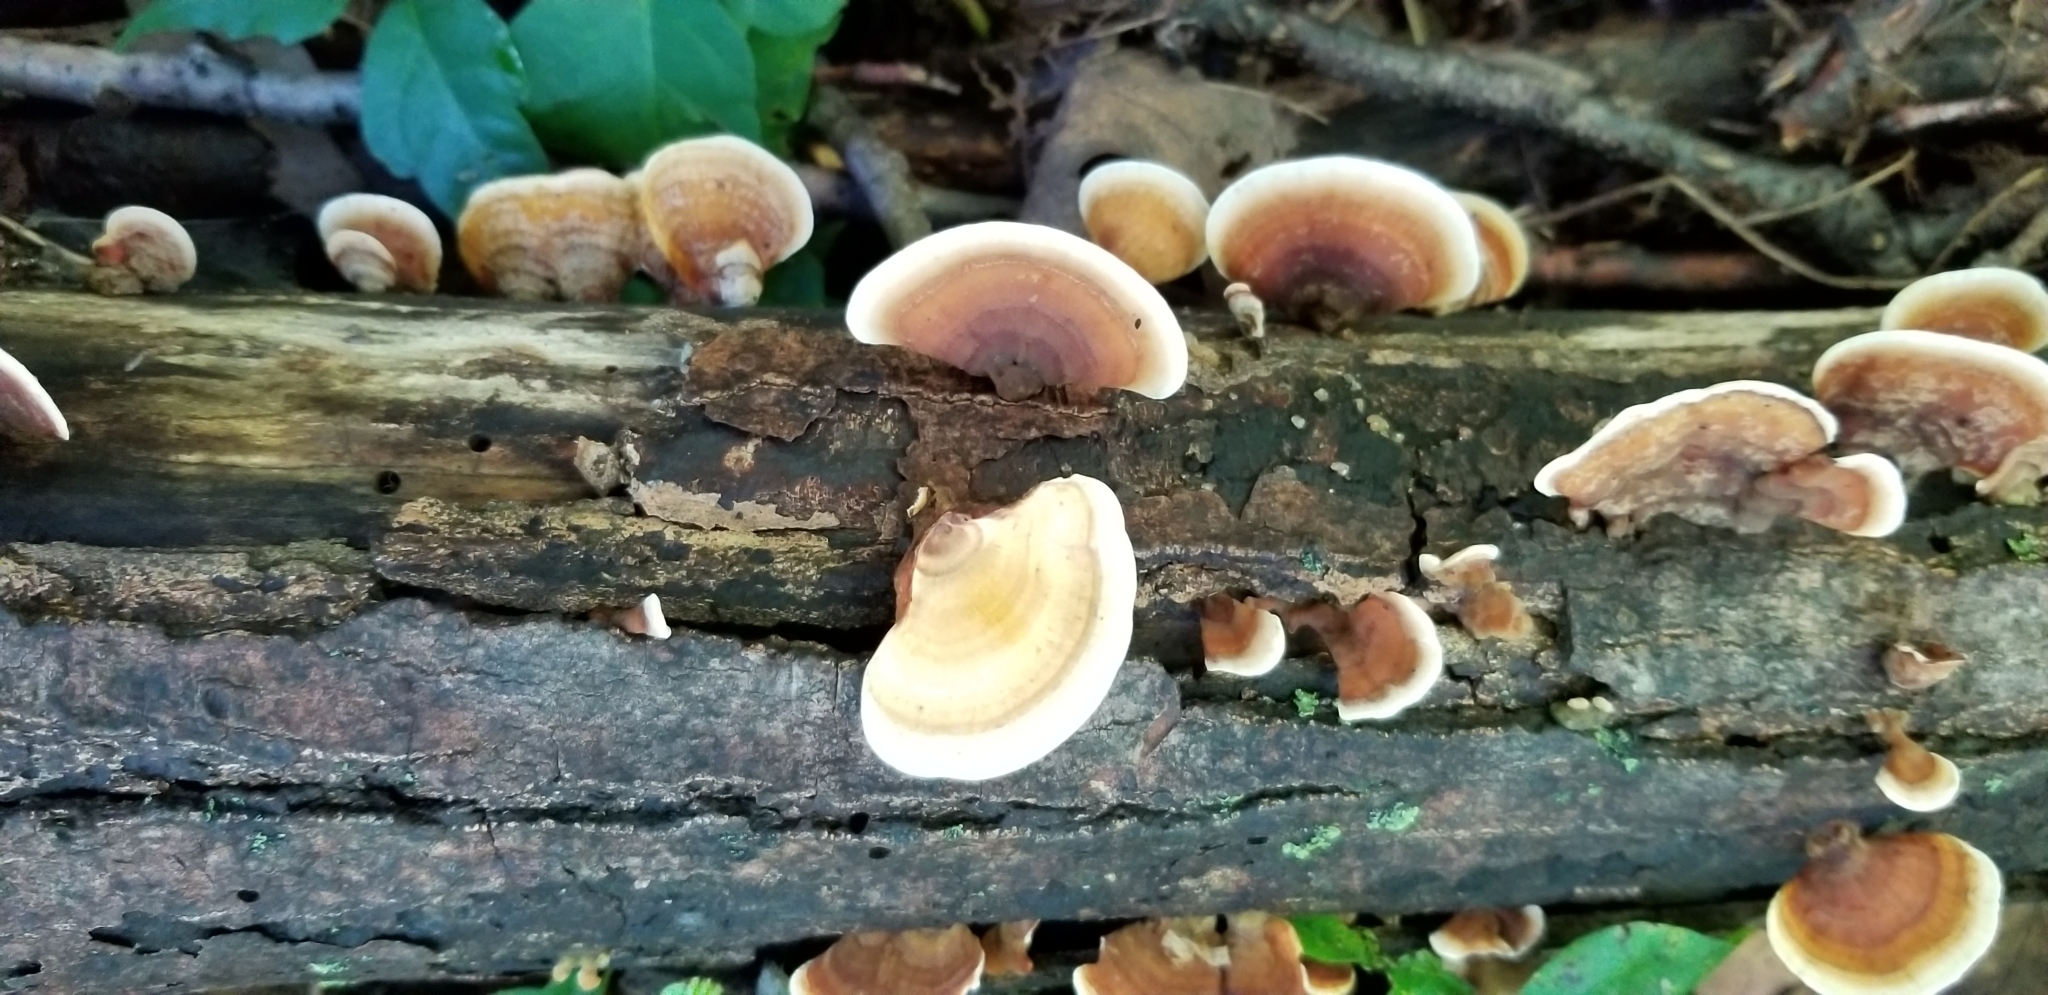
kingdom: Fungi
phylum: Basidiomycota
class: Agaricomycetes
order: Russulales
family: Stereaceae
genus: Stereum
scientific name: Stereum ostrea
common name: False turkeytail
